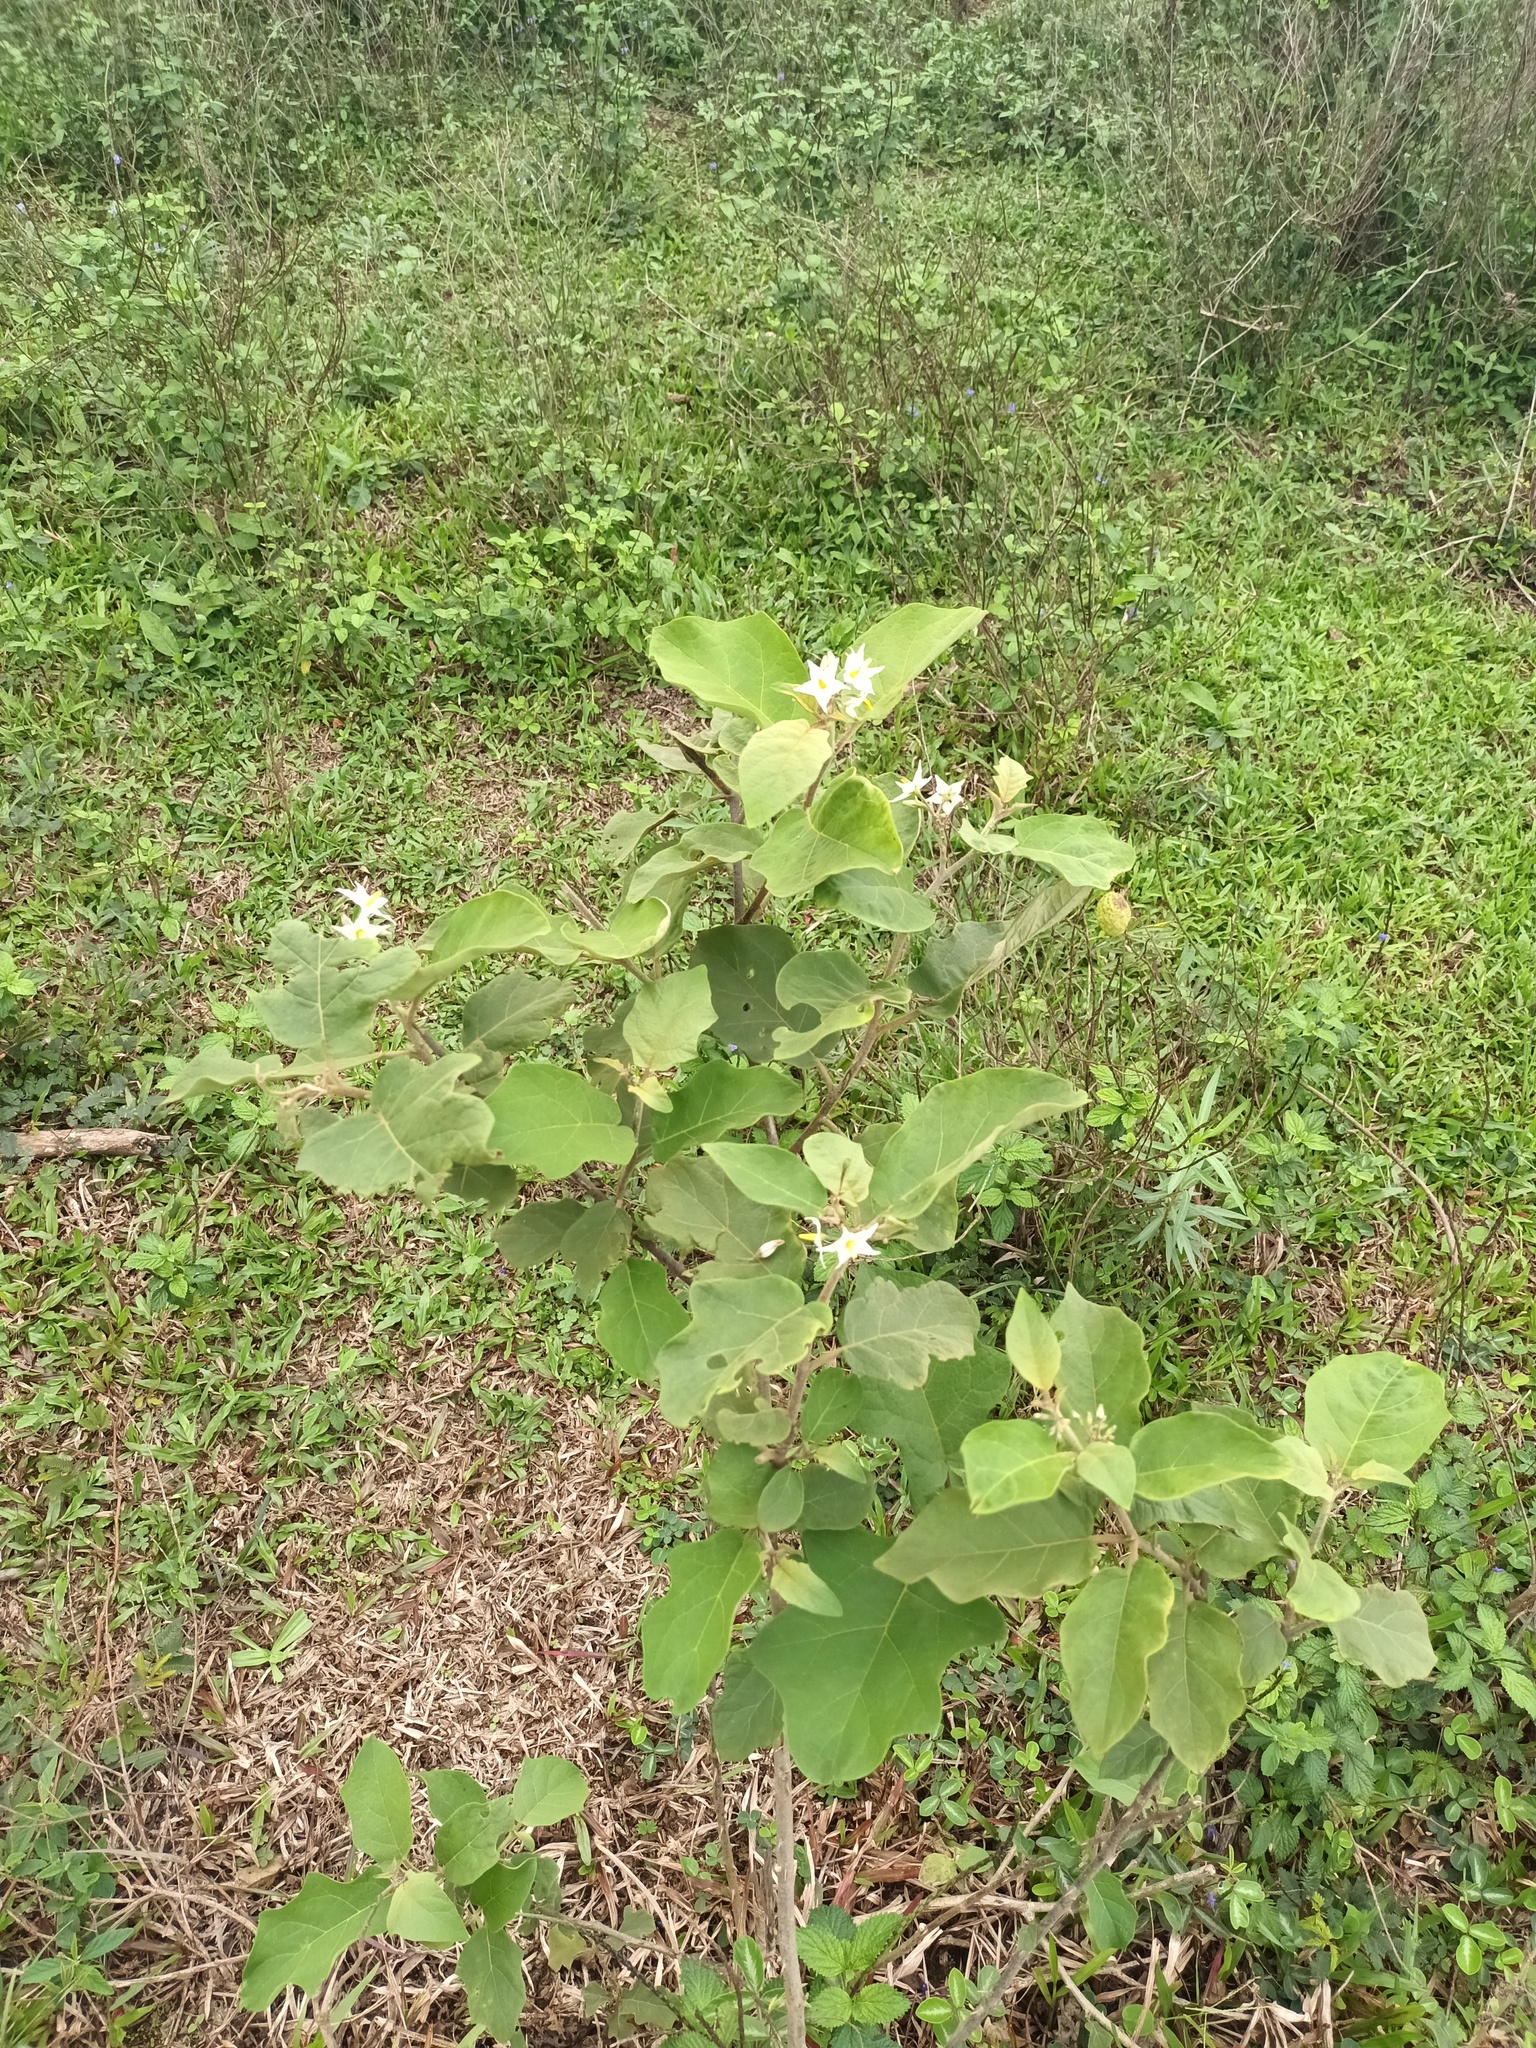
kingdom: Plantae
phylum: Tracheophyta
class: Magnoliopsida
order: Solanales
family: Solanaceae
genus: Solanum
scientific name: Solanum torvum
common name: Turkey berry
